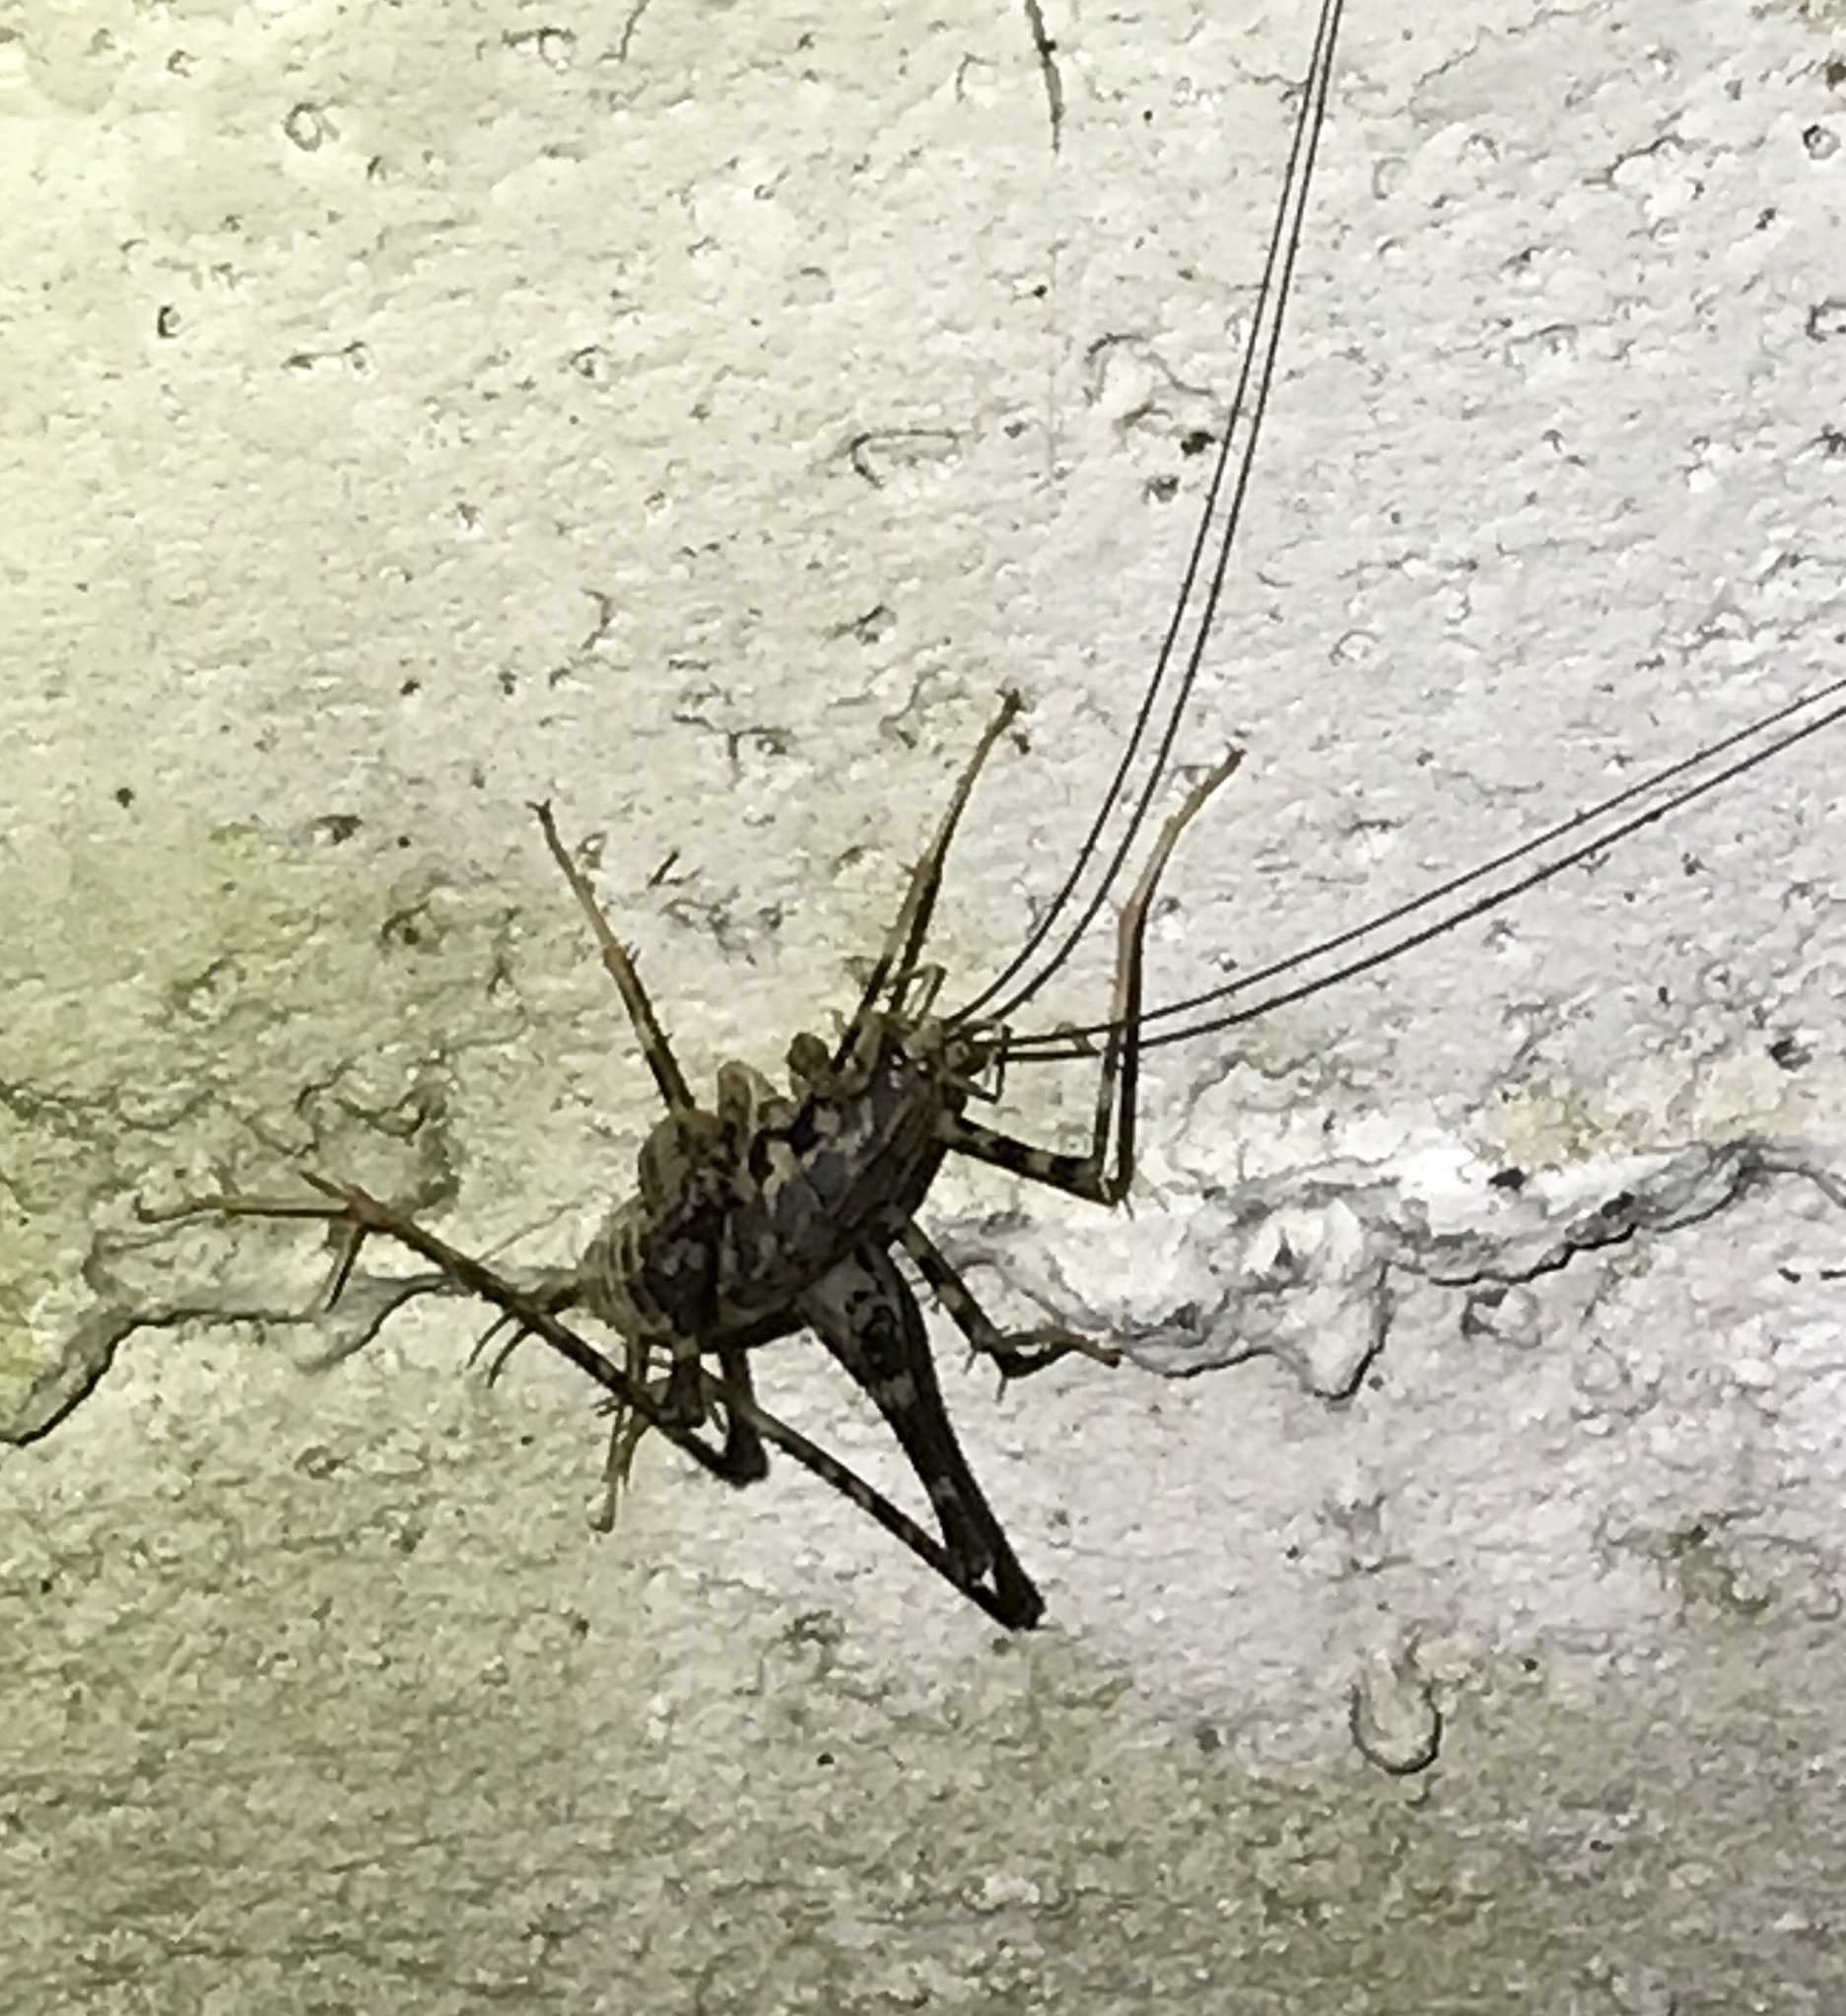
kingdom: Animalia
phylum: Arthropoda
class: Insecta
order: Orthoptera
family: Rhaphidophoridae
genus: Diestrammena
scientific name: Diestrammena japanica
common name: Japanese camel cricket
